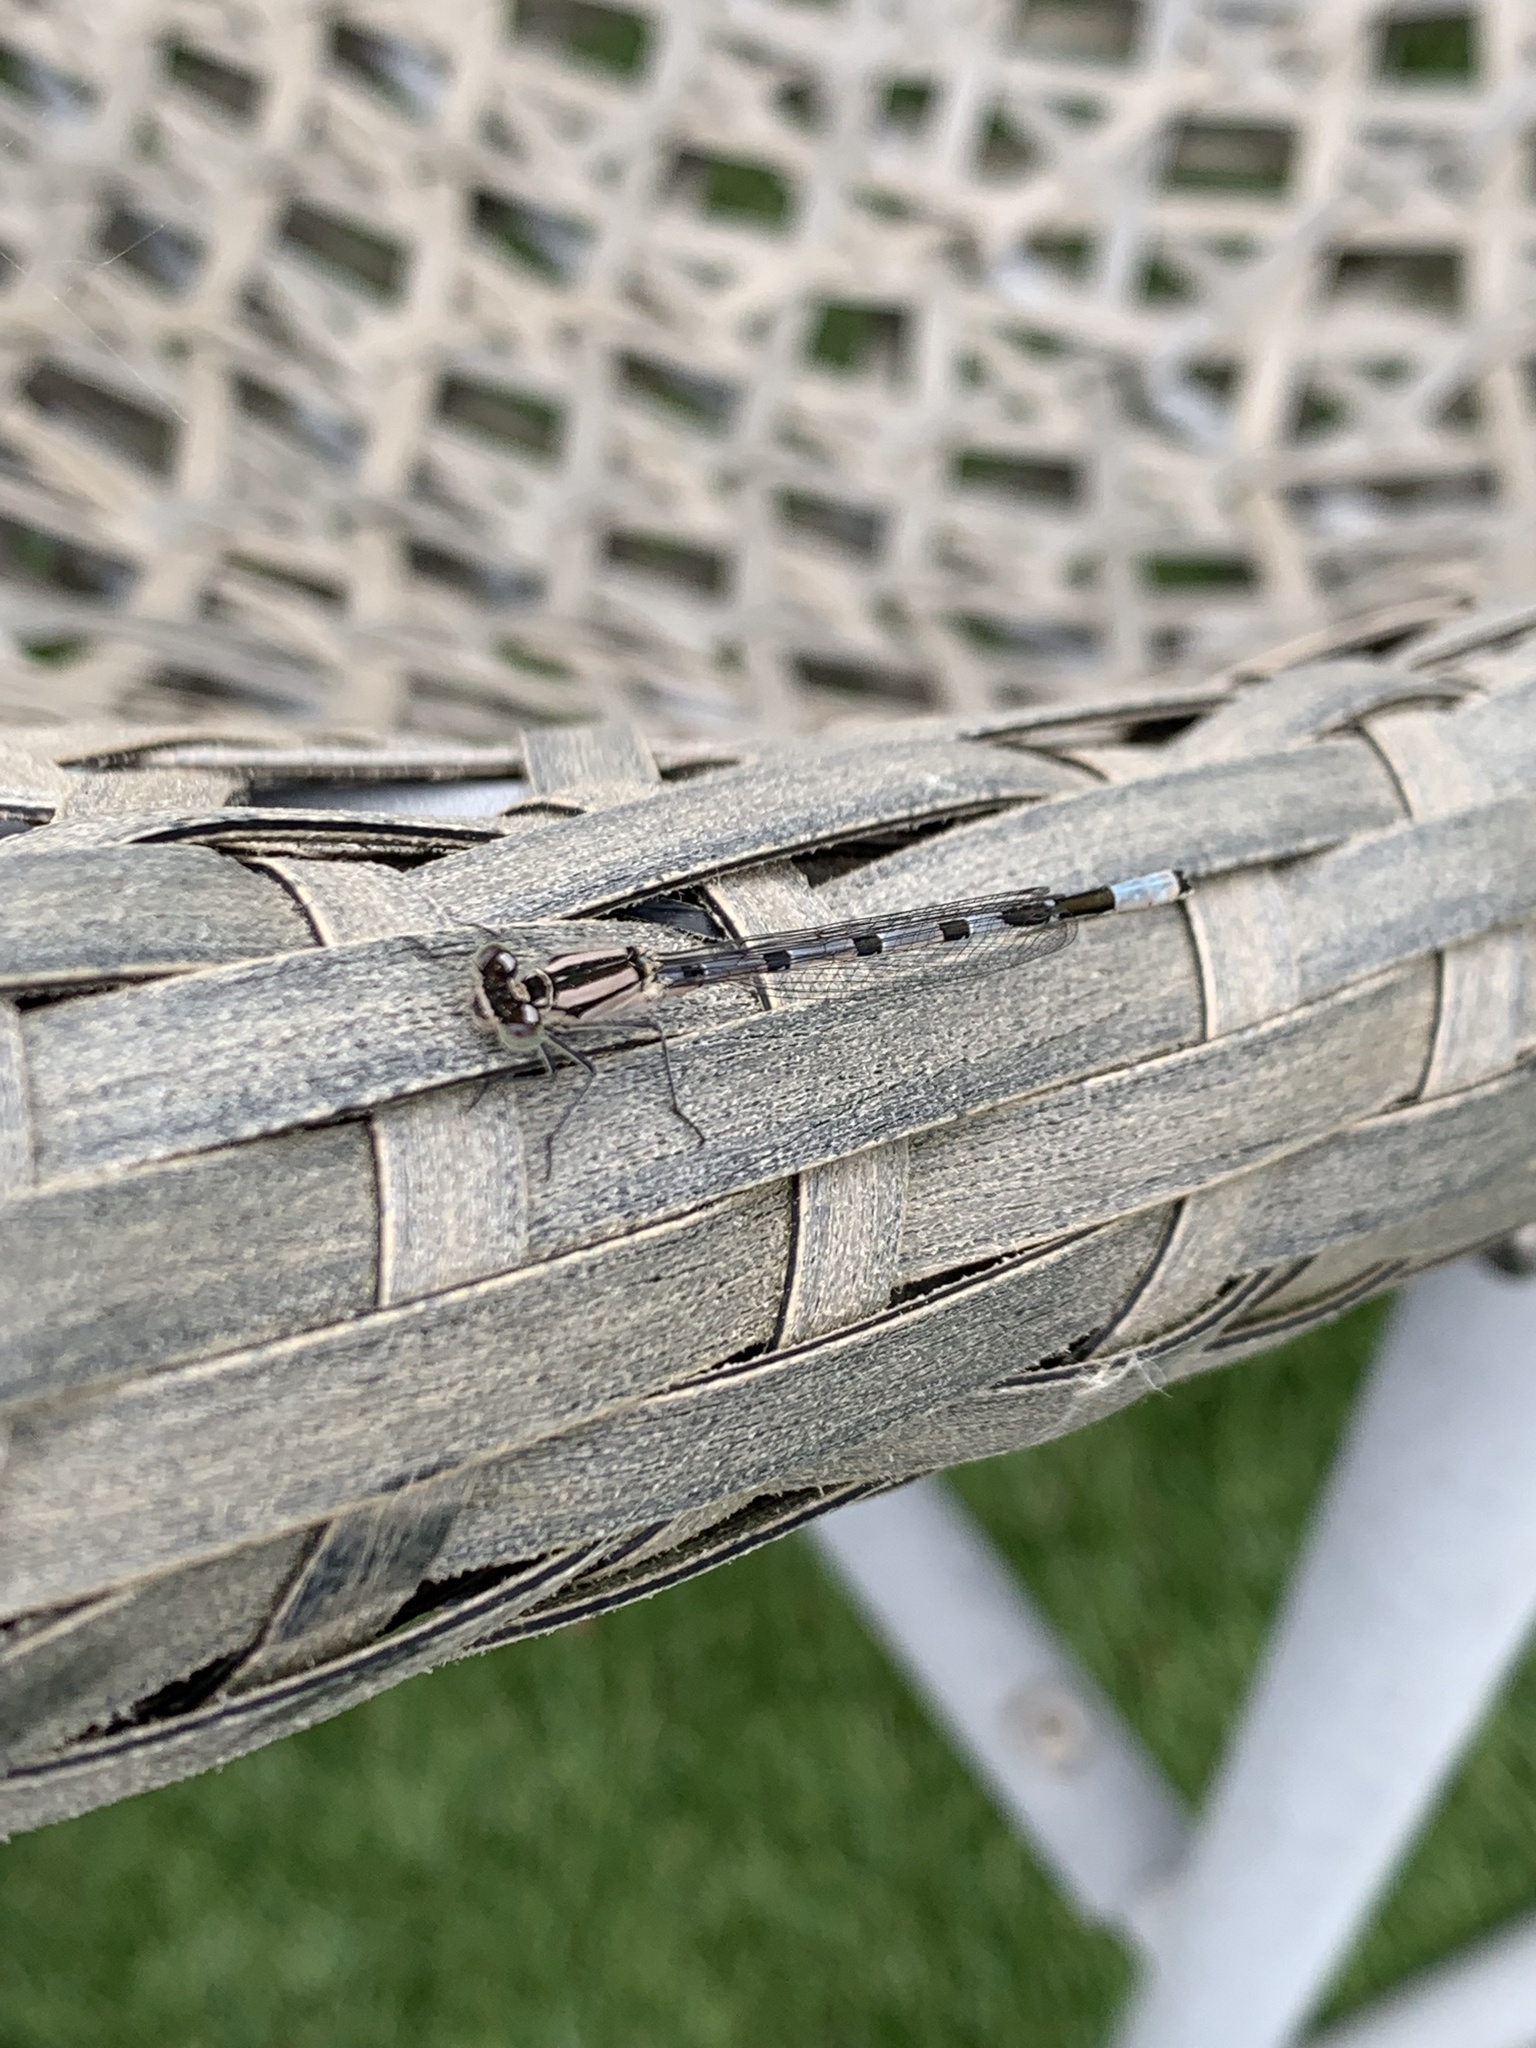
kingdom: Animalia
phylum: Arthropoda
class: Insecta
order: Odonata
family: Coenagrionidae
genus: Enallagma
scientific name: Enallagma cyathigerum
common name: Common blue damselfly
